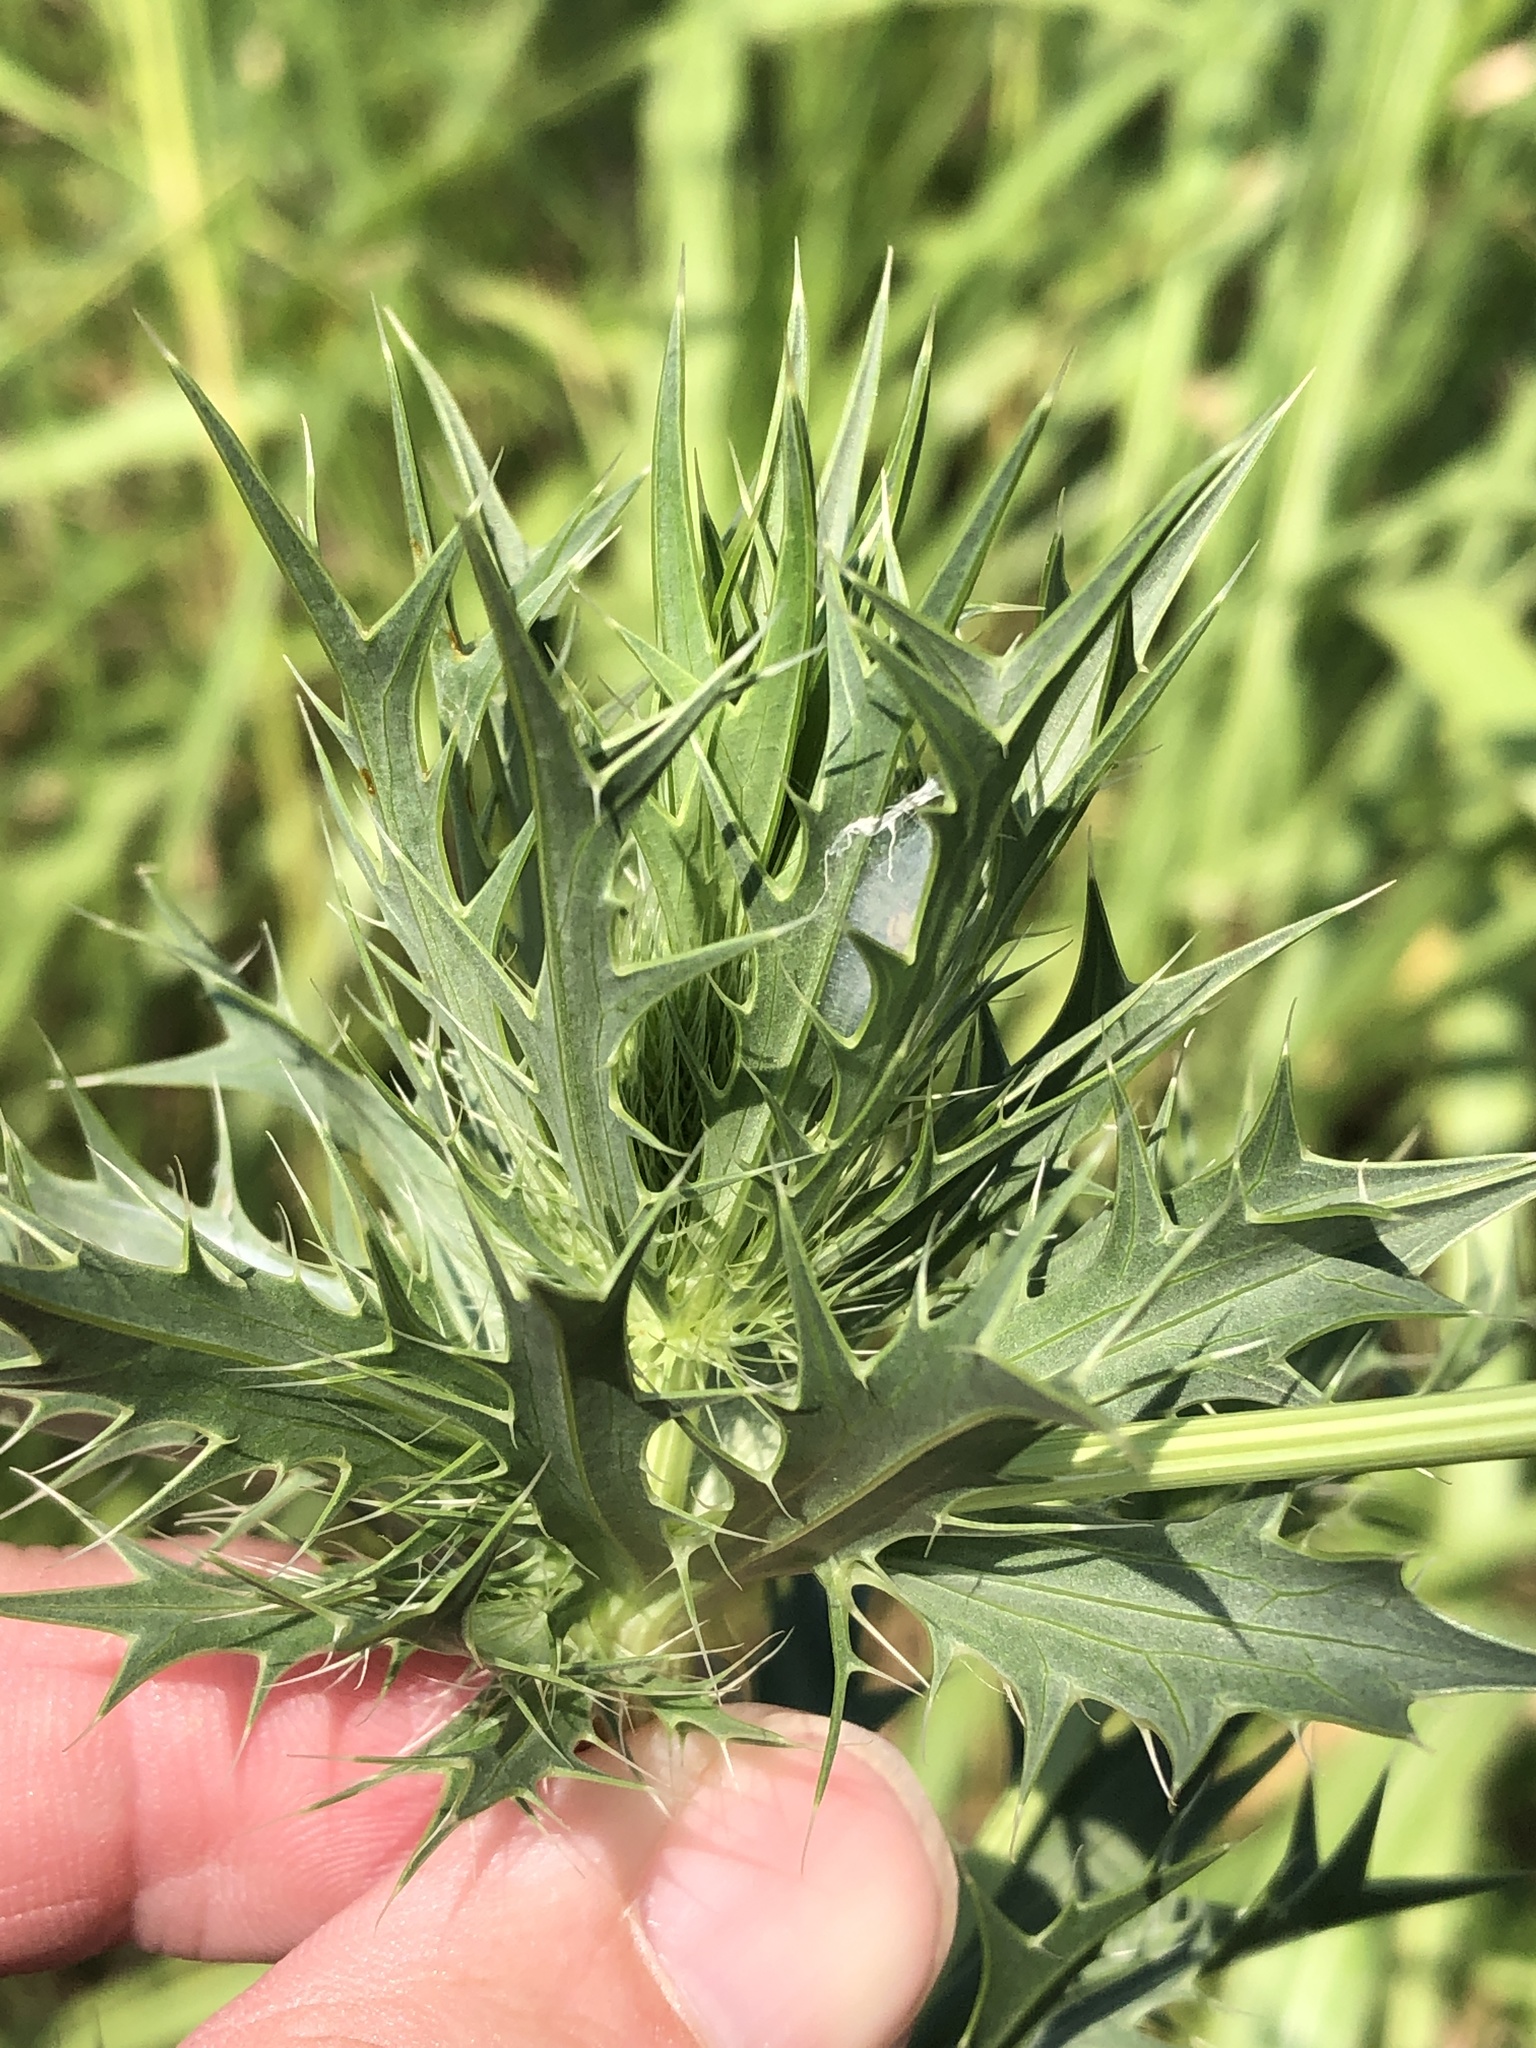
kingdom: Plantae
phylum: Tracheophyta
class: Magnoliopsida
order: Apiales
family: Apiaceae
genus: Eryngium
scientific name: Eryngium leavenworthii
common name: Leavenworth's eryngo
